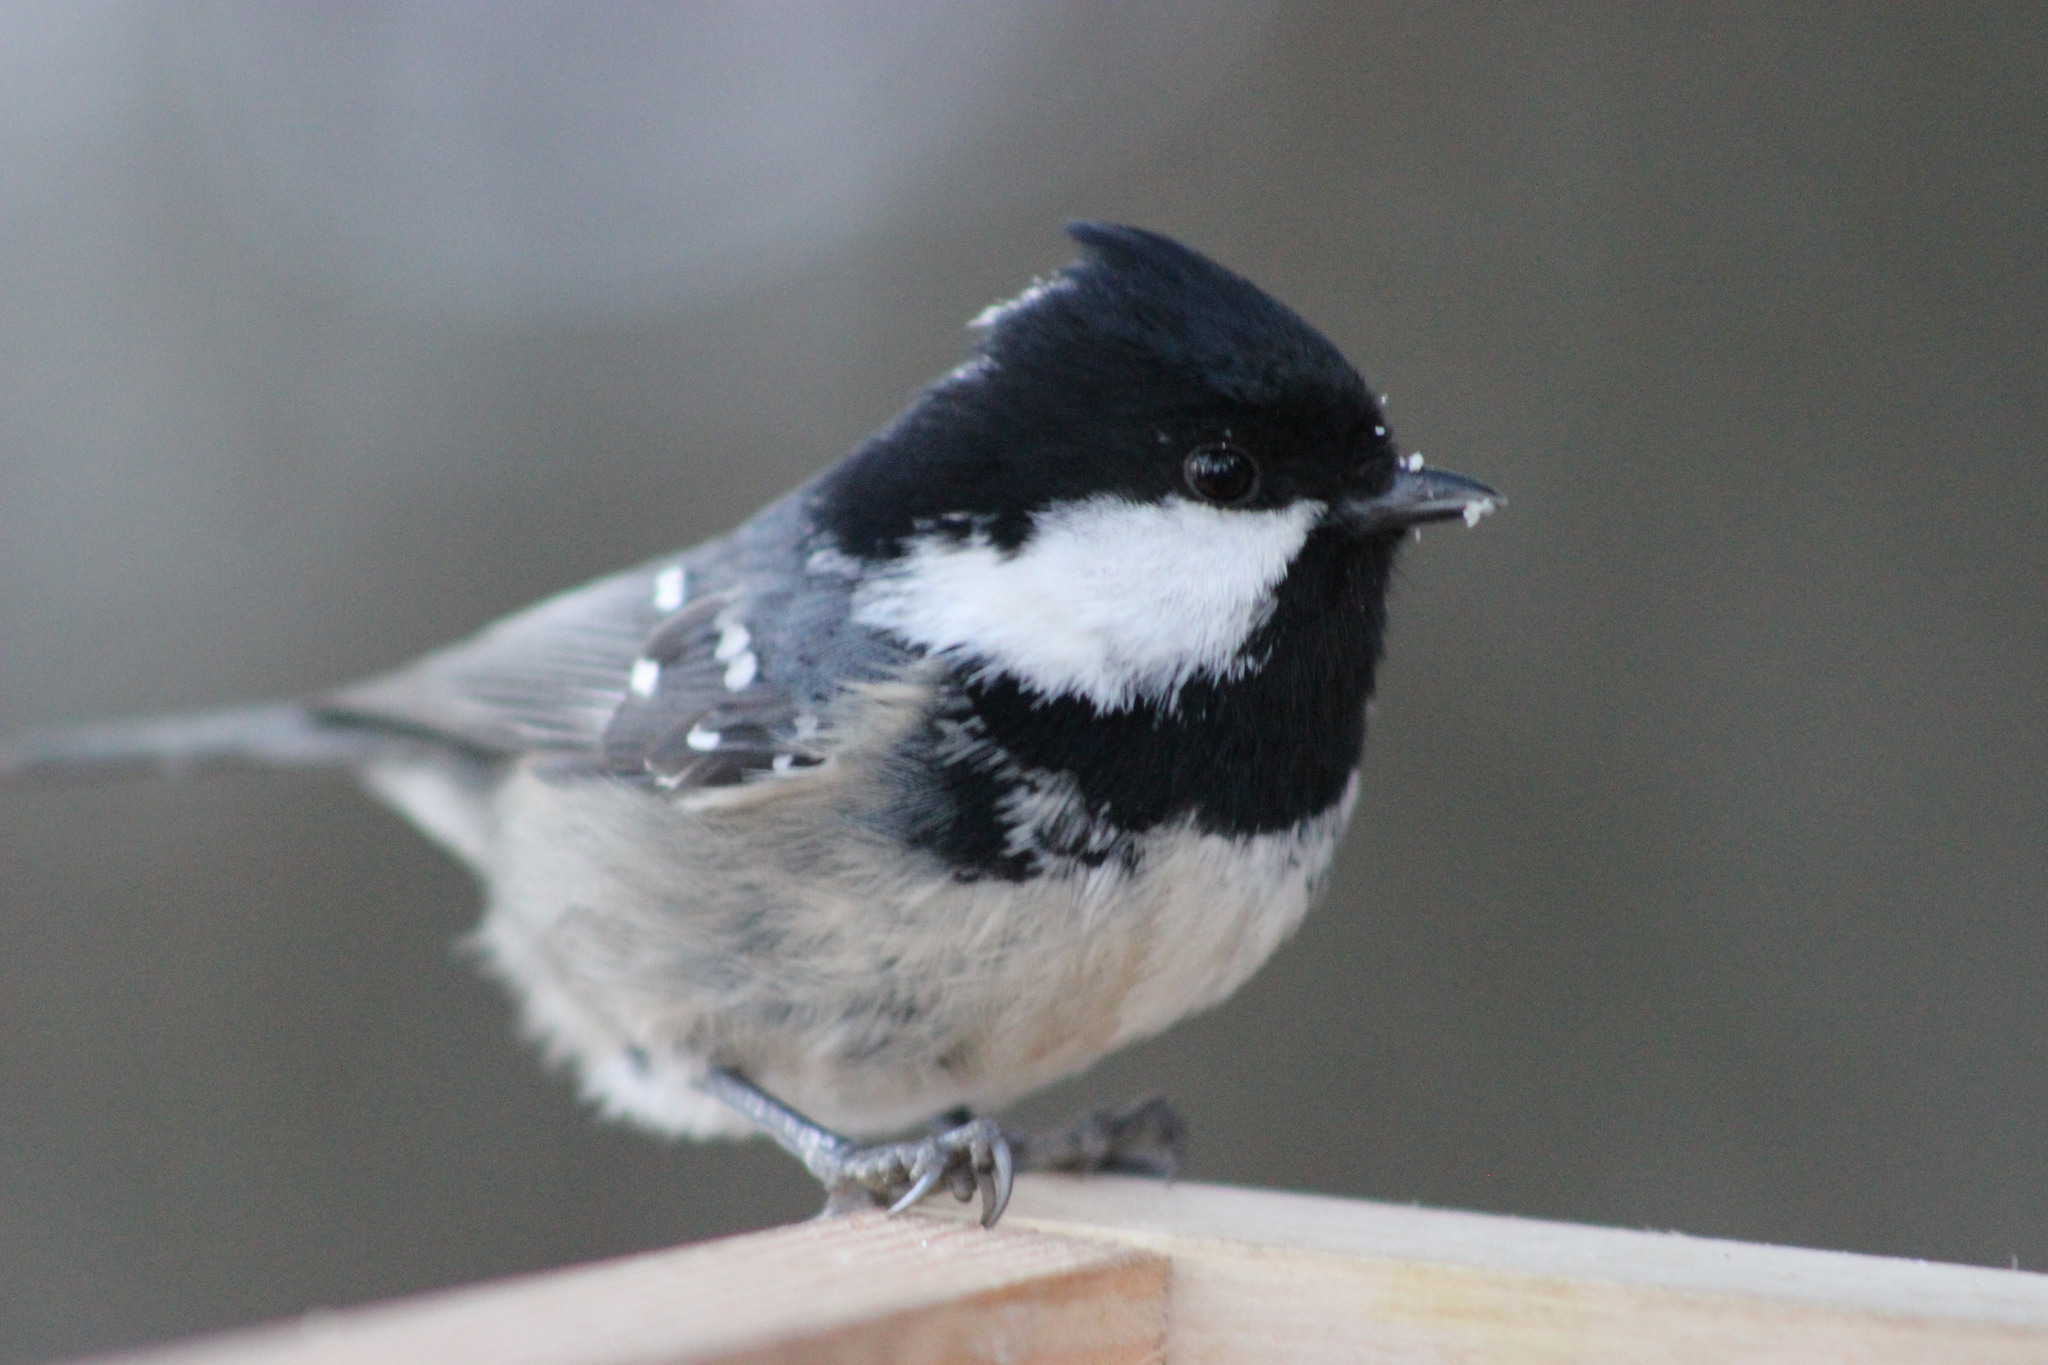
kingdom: Animalia
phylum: Chordata
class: Aves
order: Passeriformes
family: Paridae
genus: Periparus
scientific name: Periparus ater
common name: Coal tit
